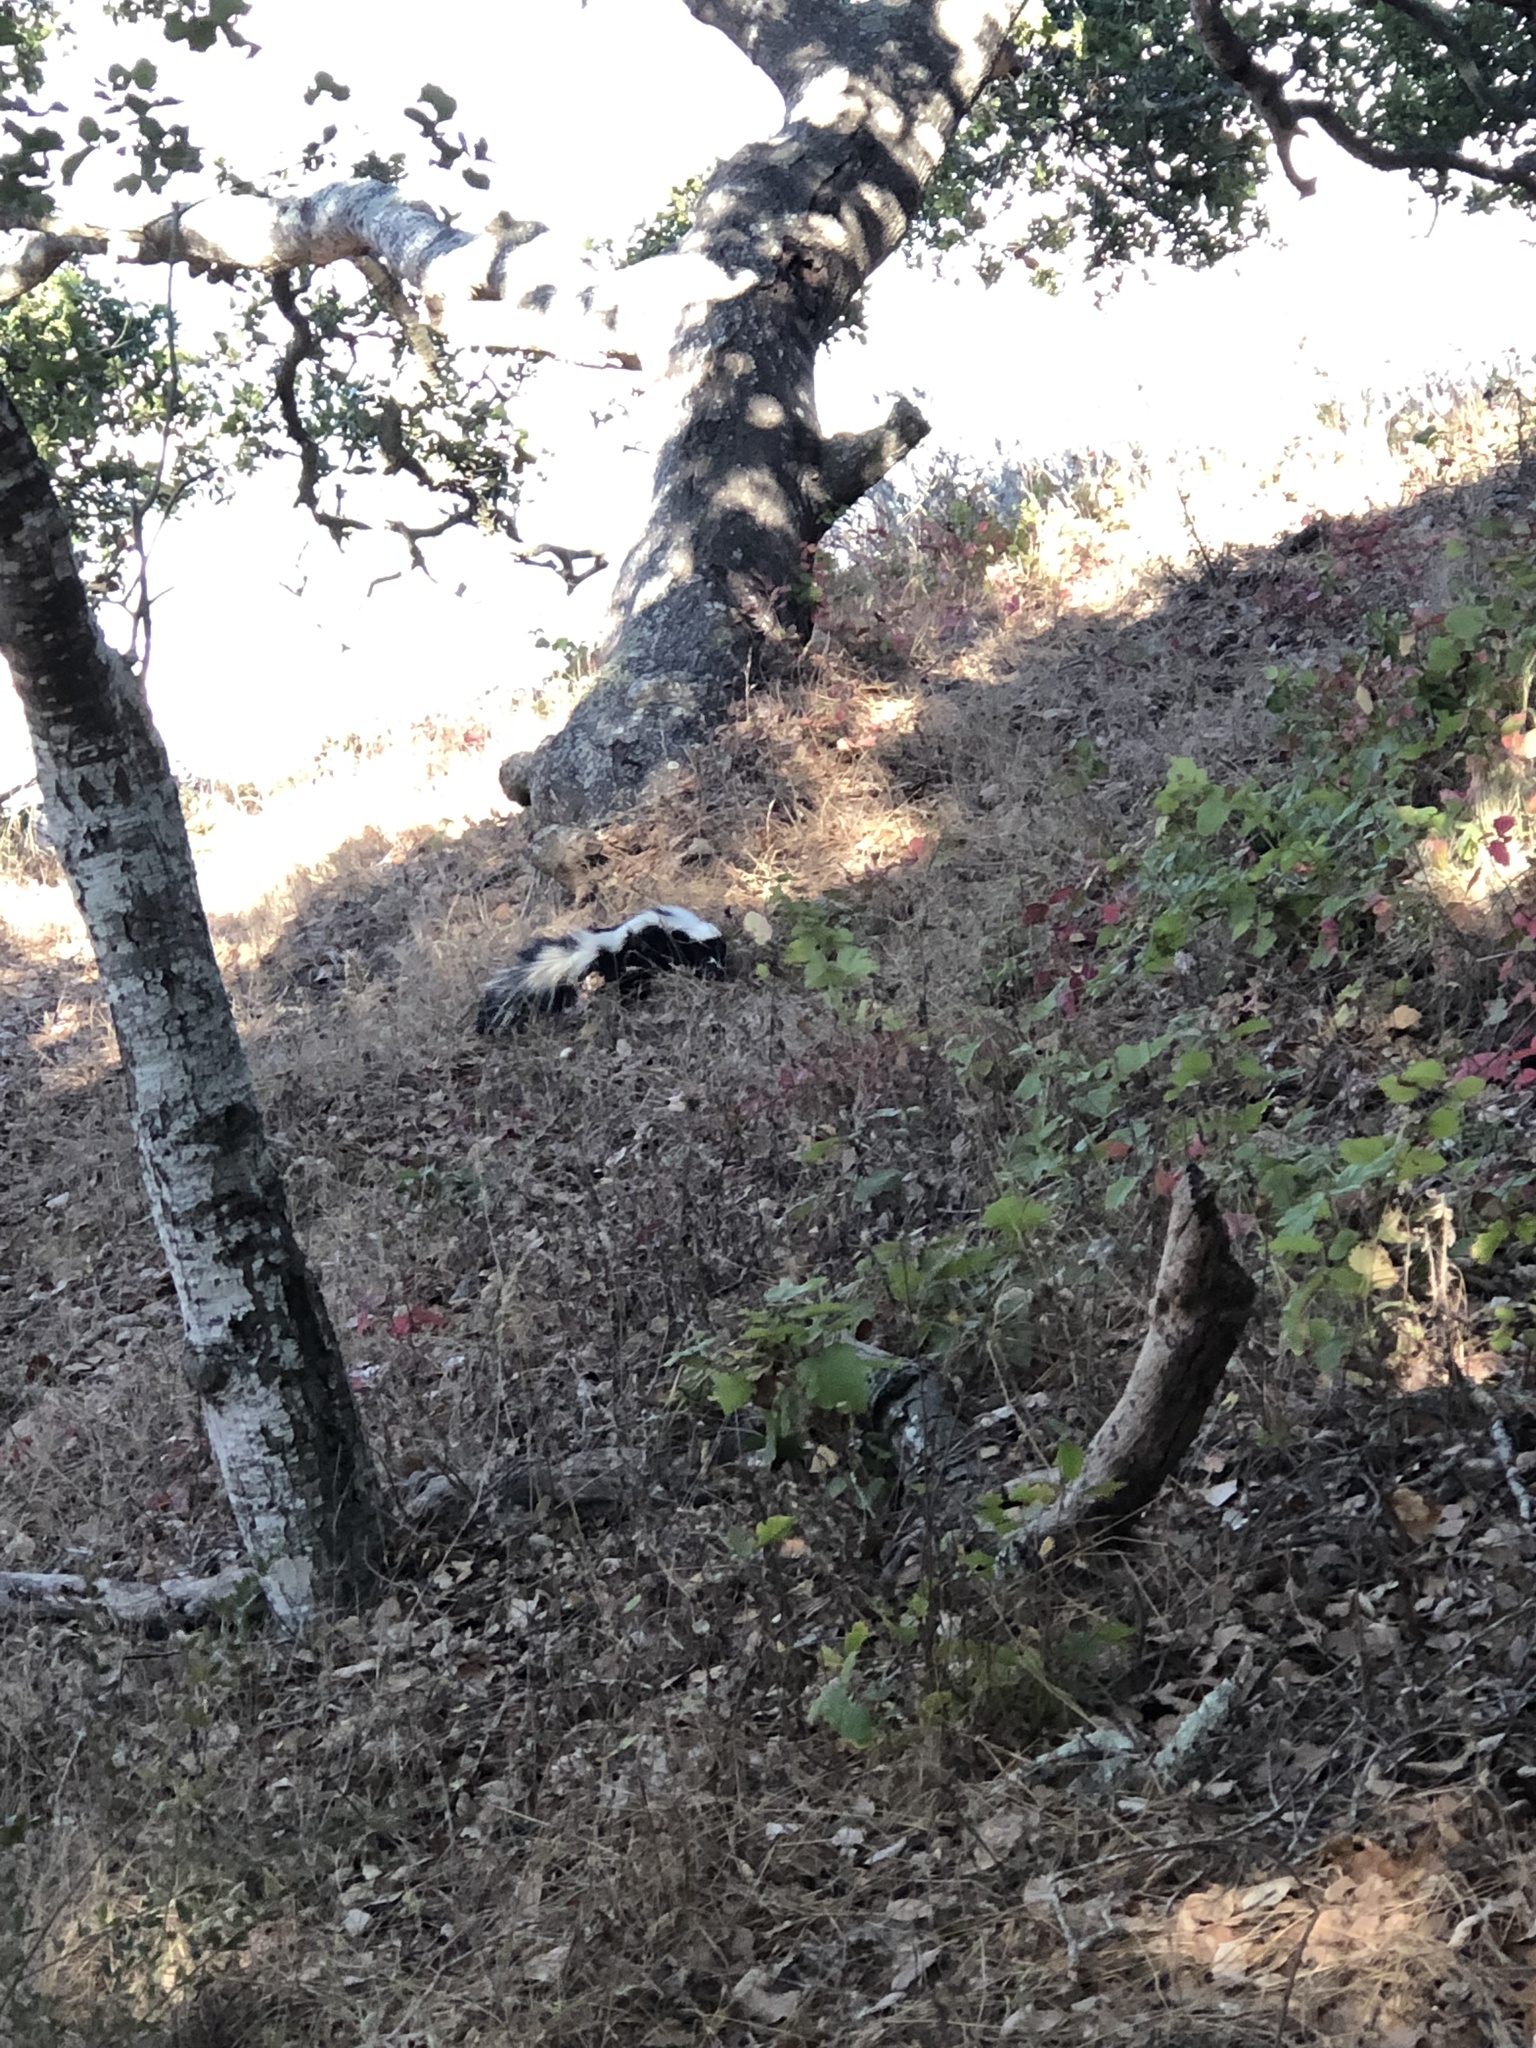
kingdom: Animalia
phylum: Chordata
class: Mammalia
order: Carnivora
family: Mephitidae
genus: Mephitis
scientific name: Mephitis mephitis
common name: Striped skunk
